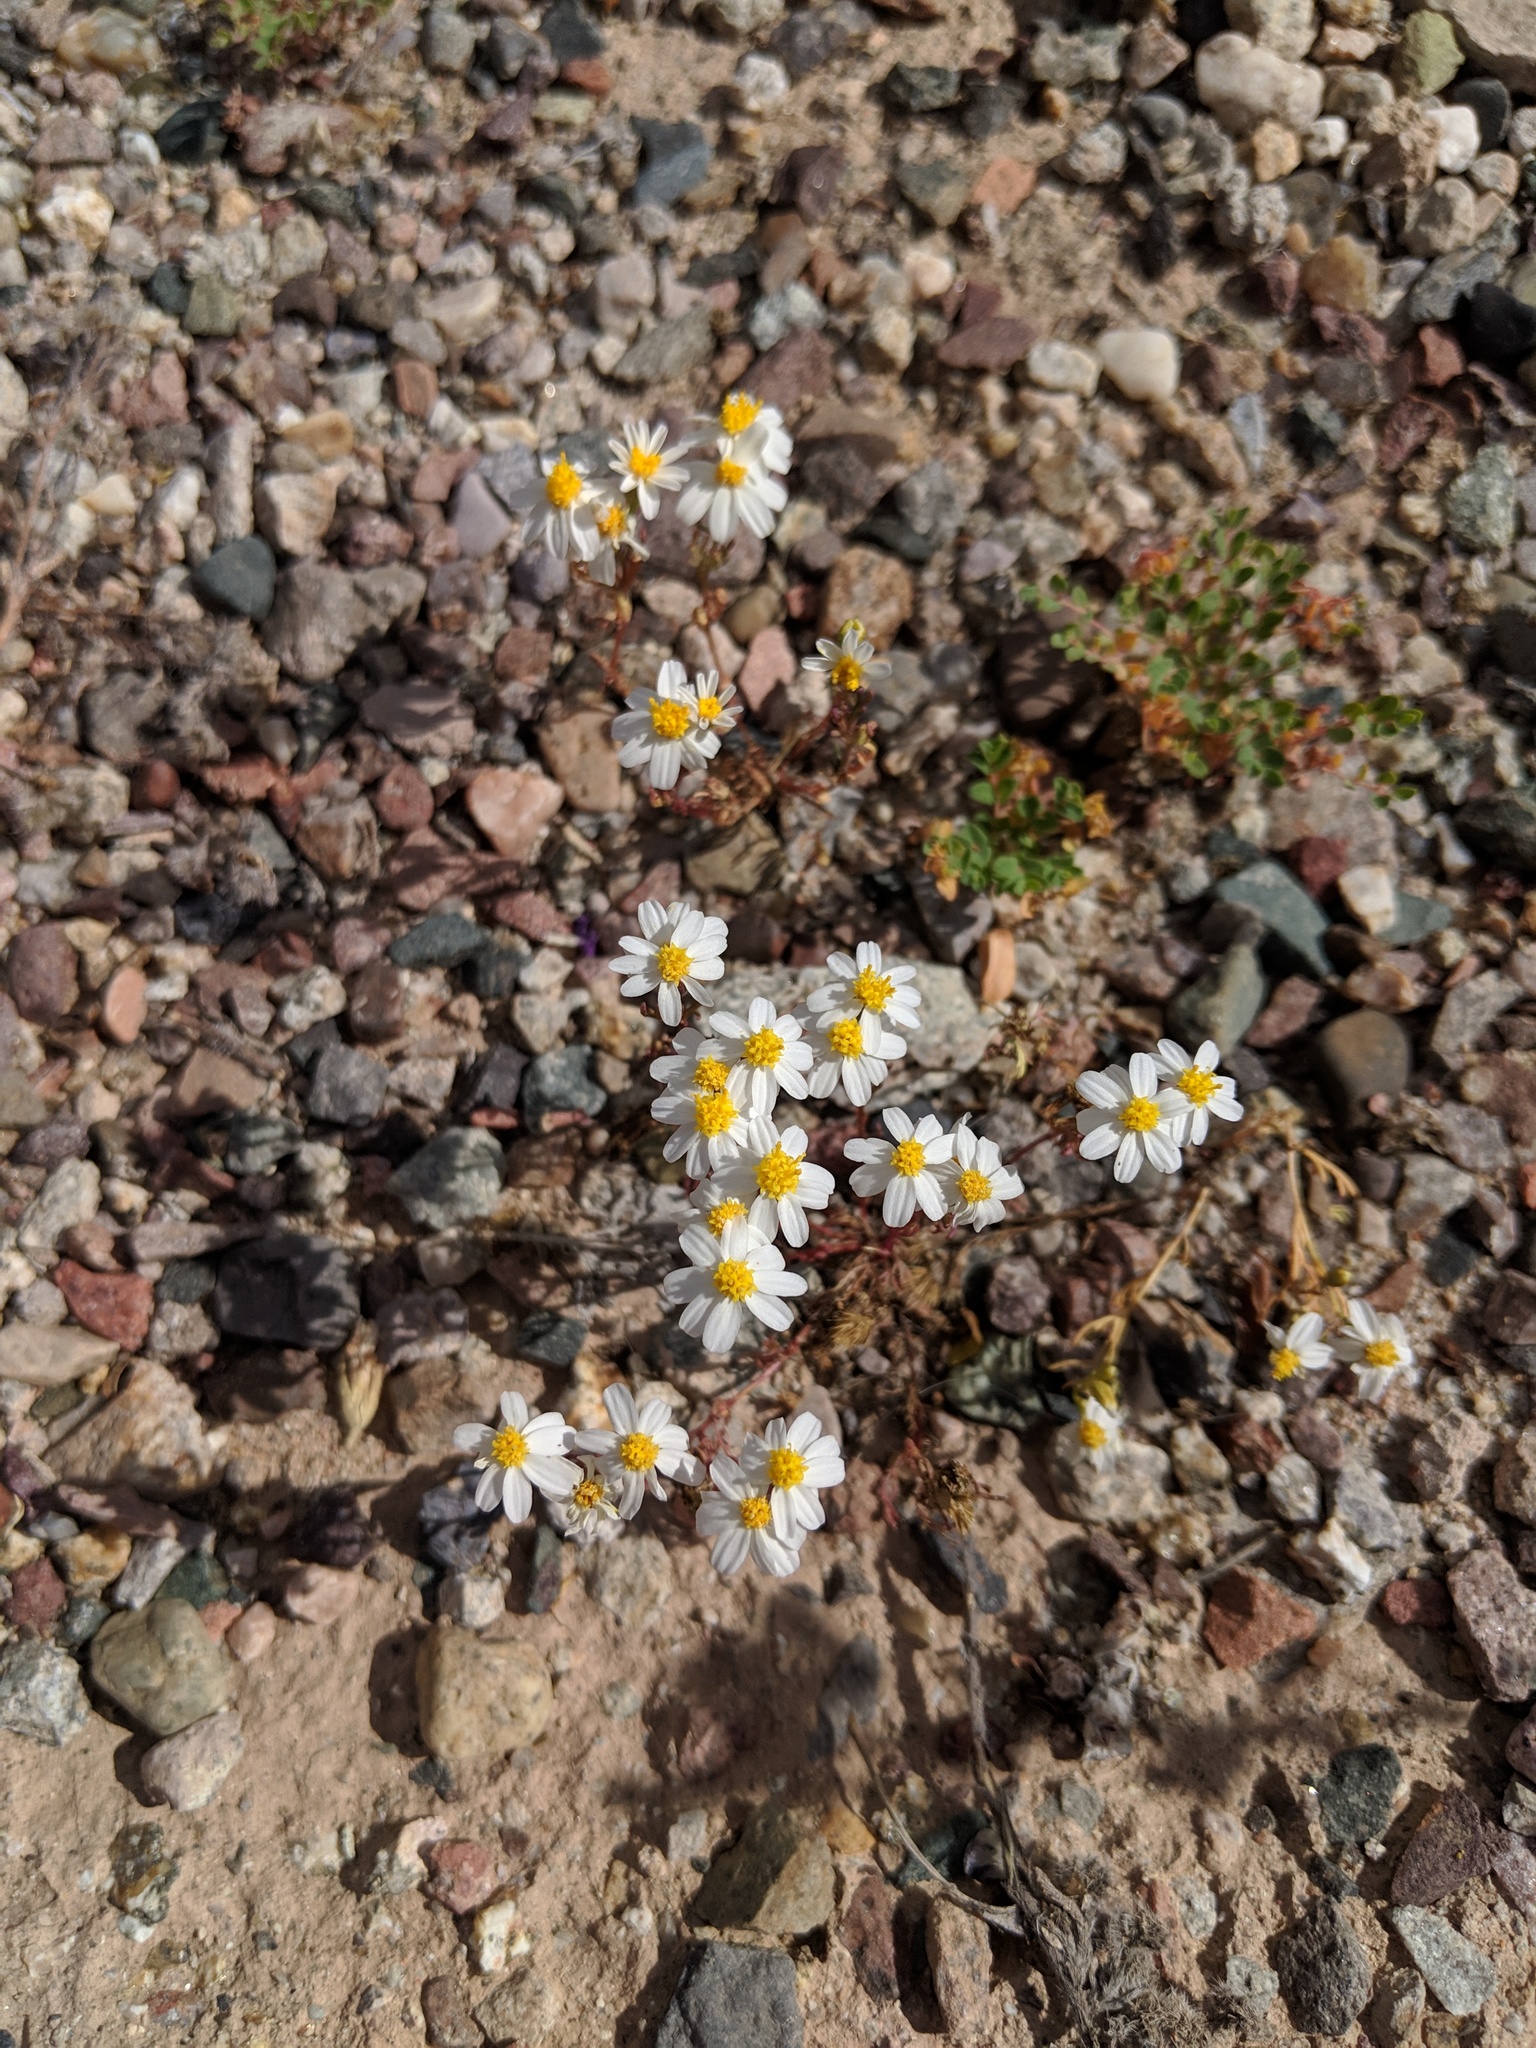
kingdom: Plantae
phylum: Tracheophyta
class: Magnoliopsida
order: Asterales
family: Asteraceae
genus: Eriophyllum
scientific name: Eriophyllum lanosum
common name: White easter-bonnets
